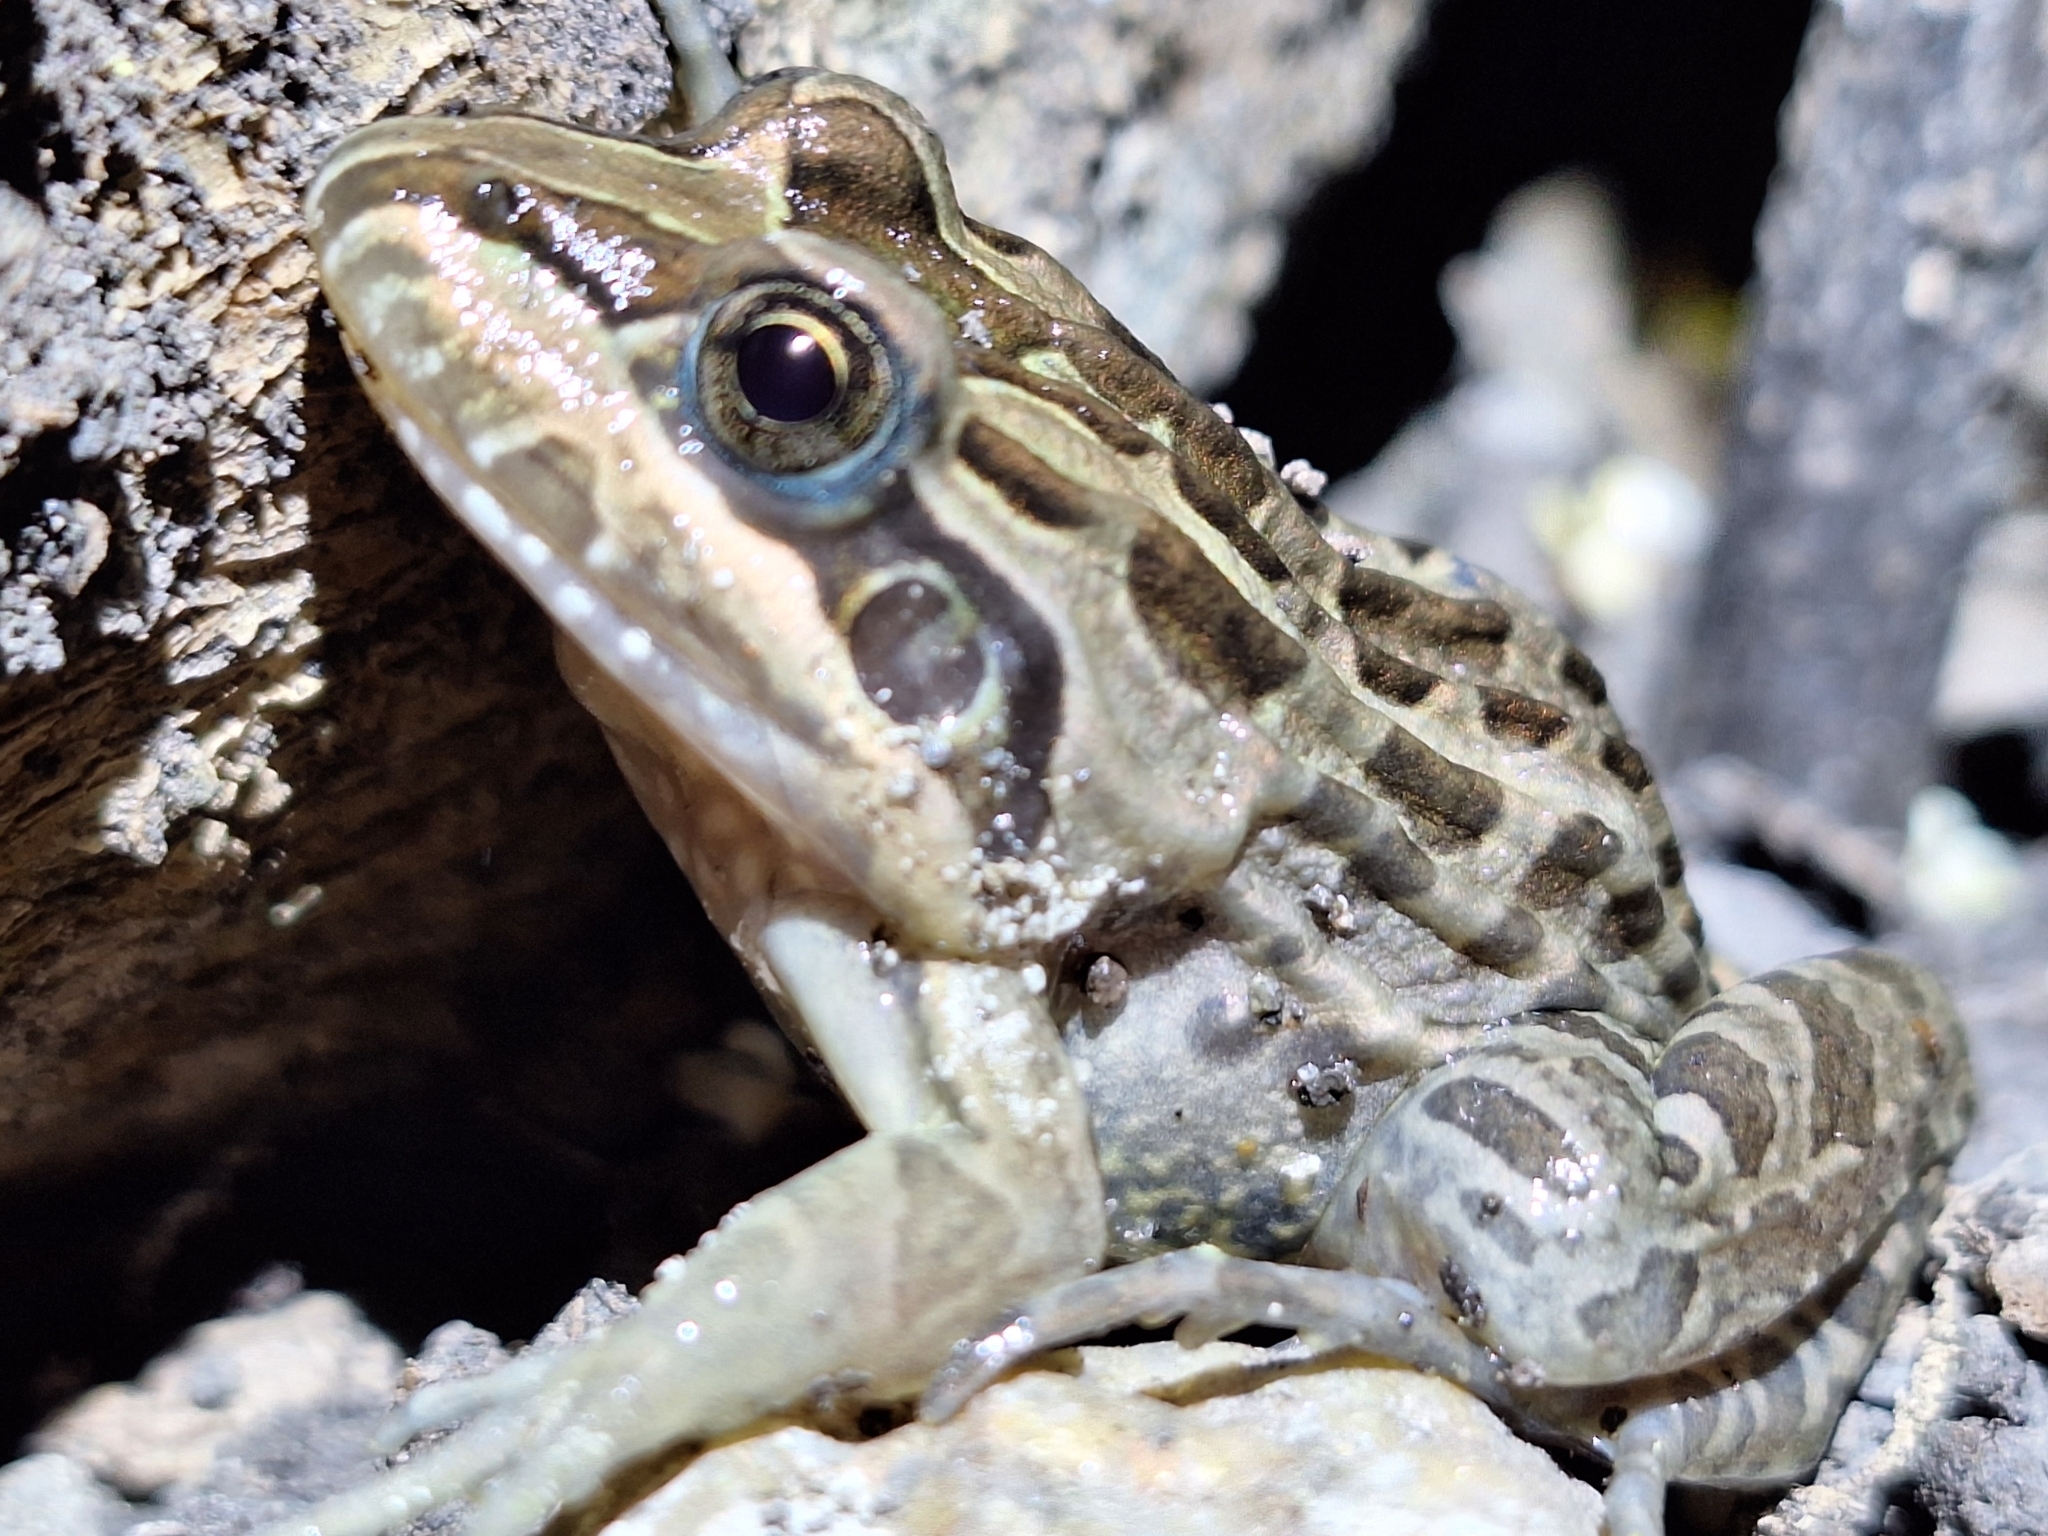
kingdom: Animalia
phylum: Chordata
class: Amphibia
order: Anura
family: Leptodactylidae
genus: Leptodactylus
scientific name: Leptodactylus luctator
